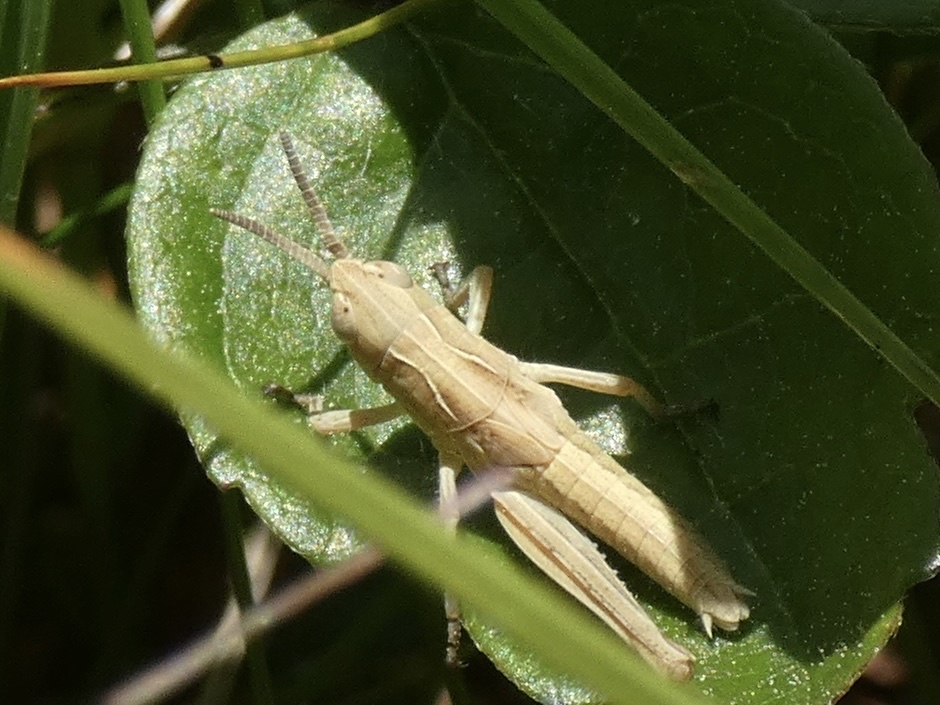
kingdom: Animalia
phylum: Arthropoda
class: Insecta
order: Orthoptera
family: Acrididae
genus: Chorthippus
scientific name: Chorthippus brunneus
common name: Field grasshopper
